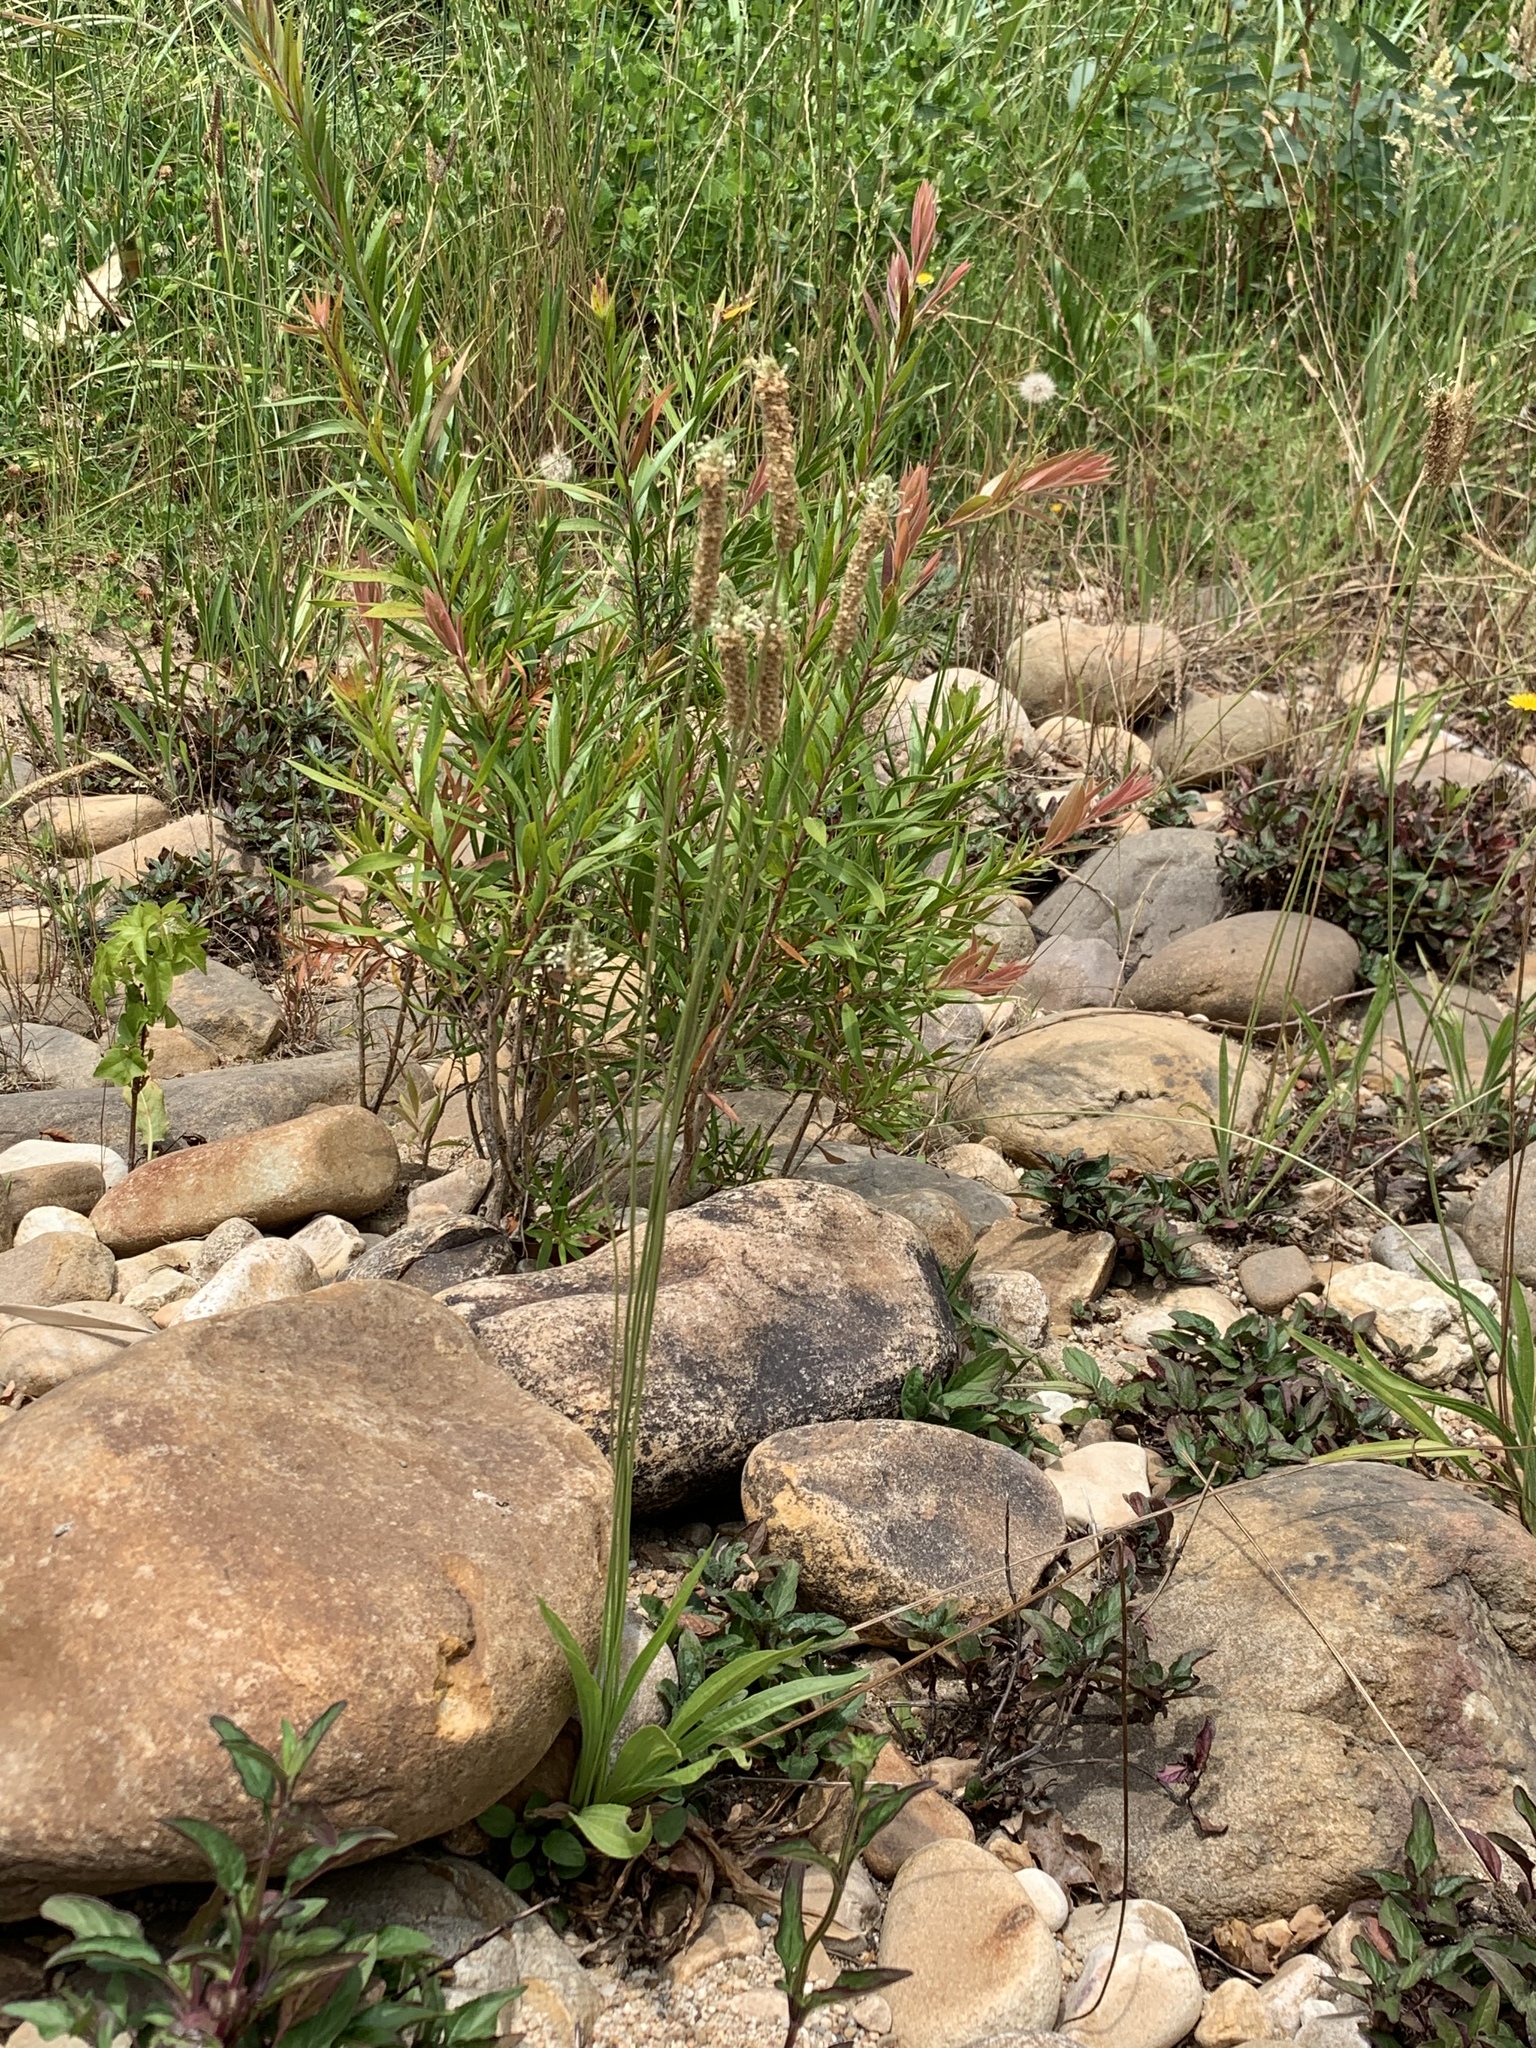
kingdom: Plantae
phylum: Tracheophyta
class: Magnoliopsida
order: Lamiales
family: Plantaginaceae
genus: Plantago
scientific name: Plantago lanceolata
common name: Ribwort plantain
